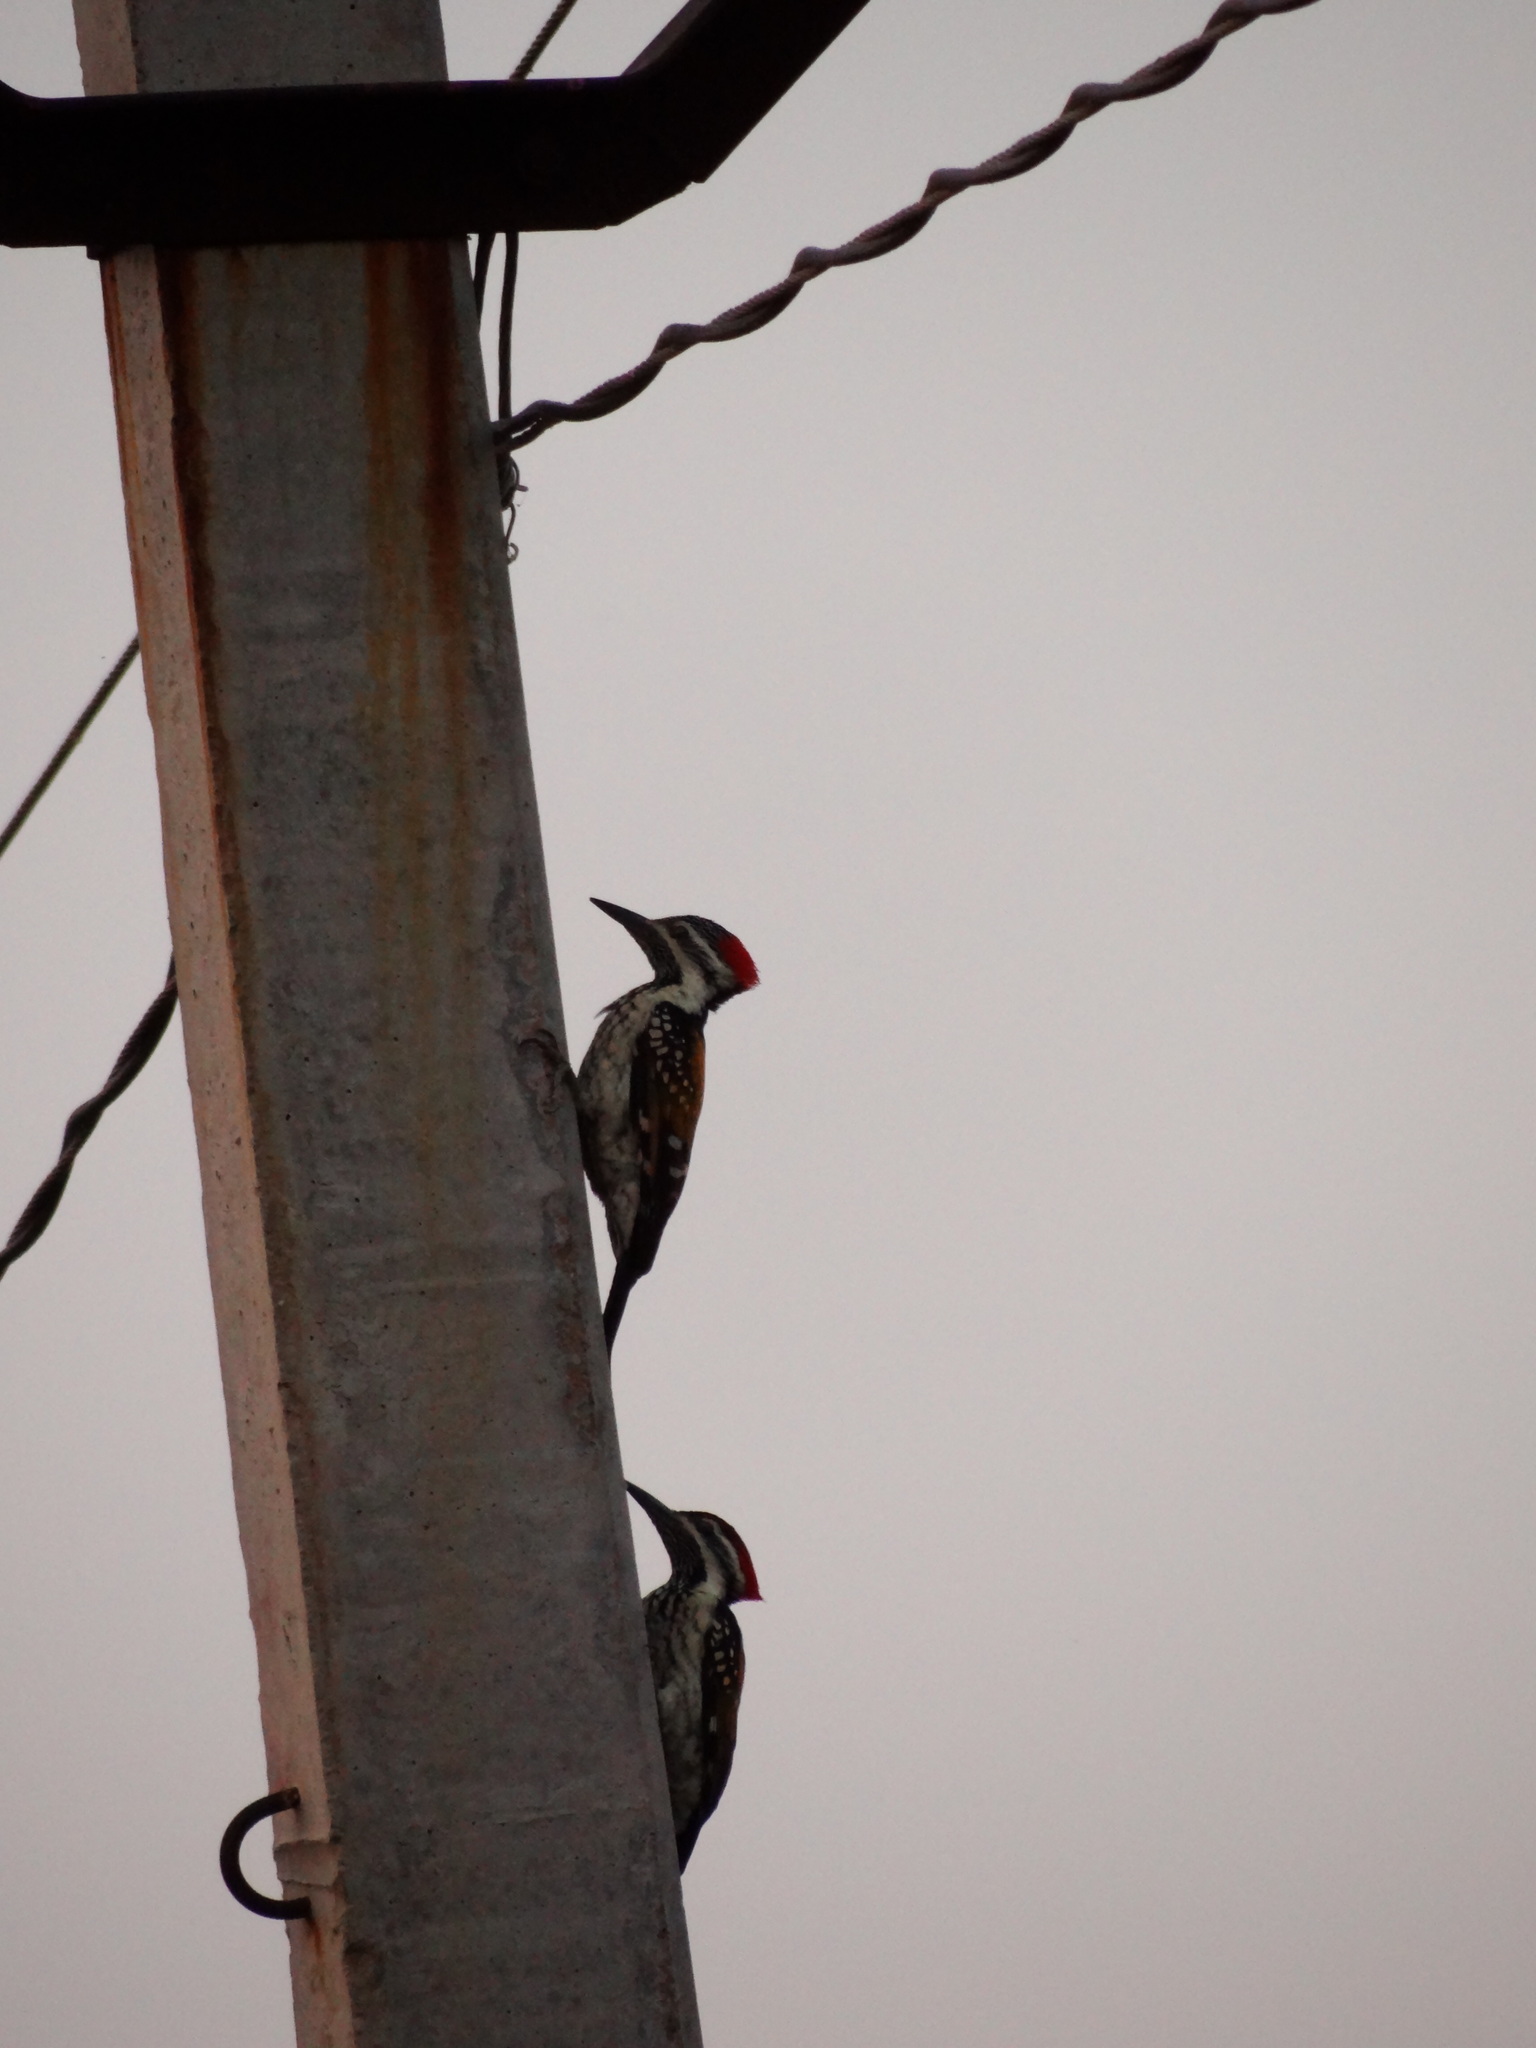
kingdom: Animalia
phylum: Chordata
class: Aves
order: Piciformes
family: Picidae
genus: Dinopium
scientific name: Dinopium benghalense
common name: Black-rumped flameback
